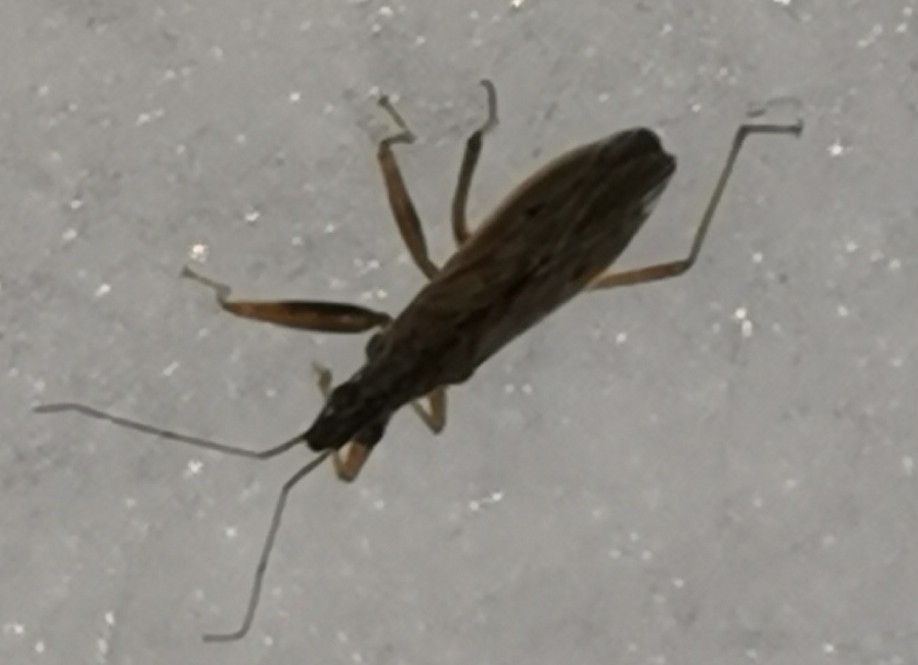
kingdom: Animalia
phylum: Arthropoda
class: Insecta
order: Hemiptera
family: Nabidae
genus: Nabis
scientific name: Nabis brevis
